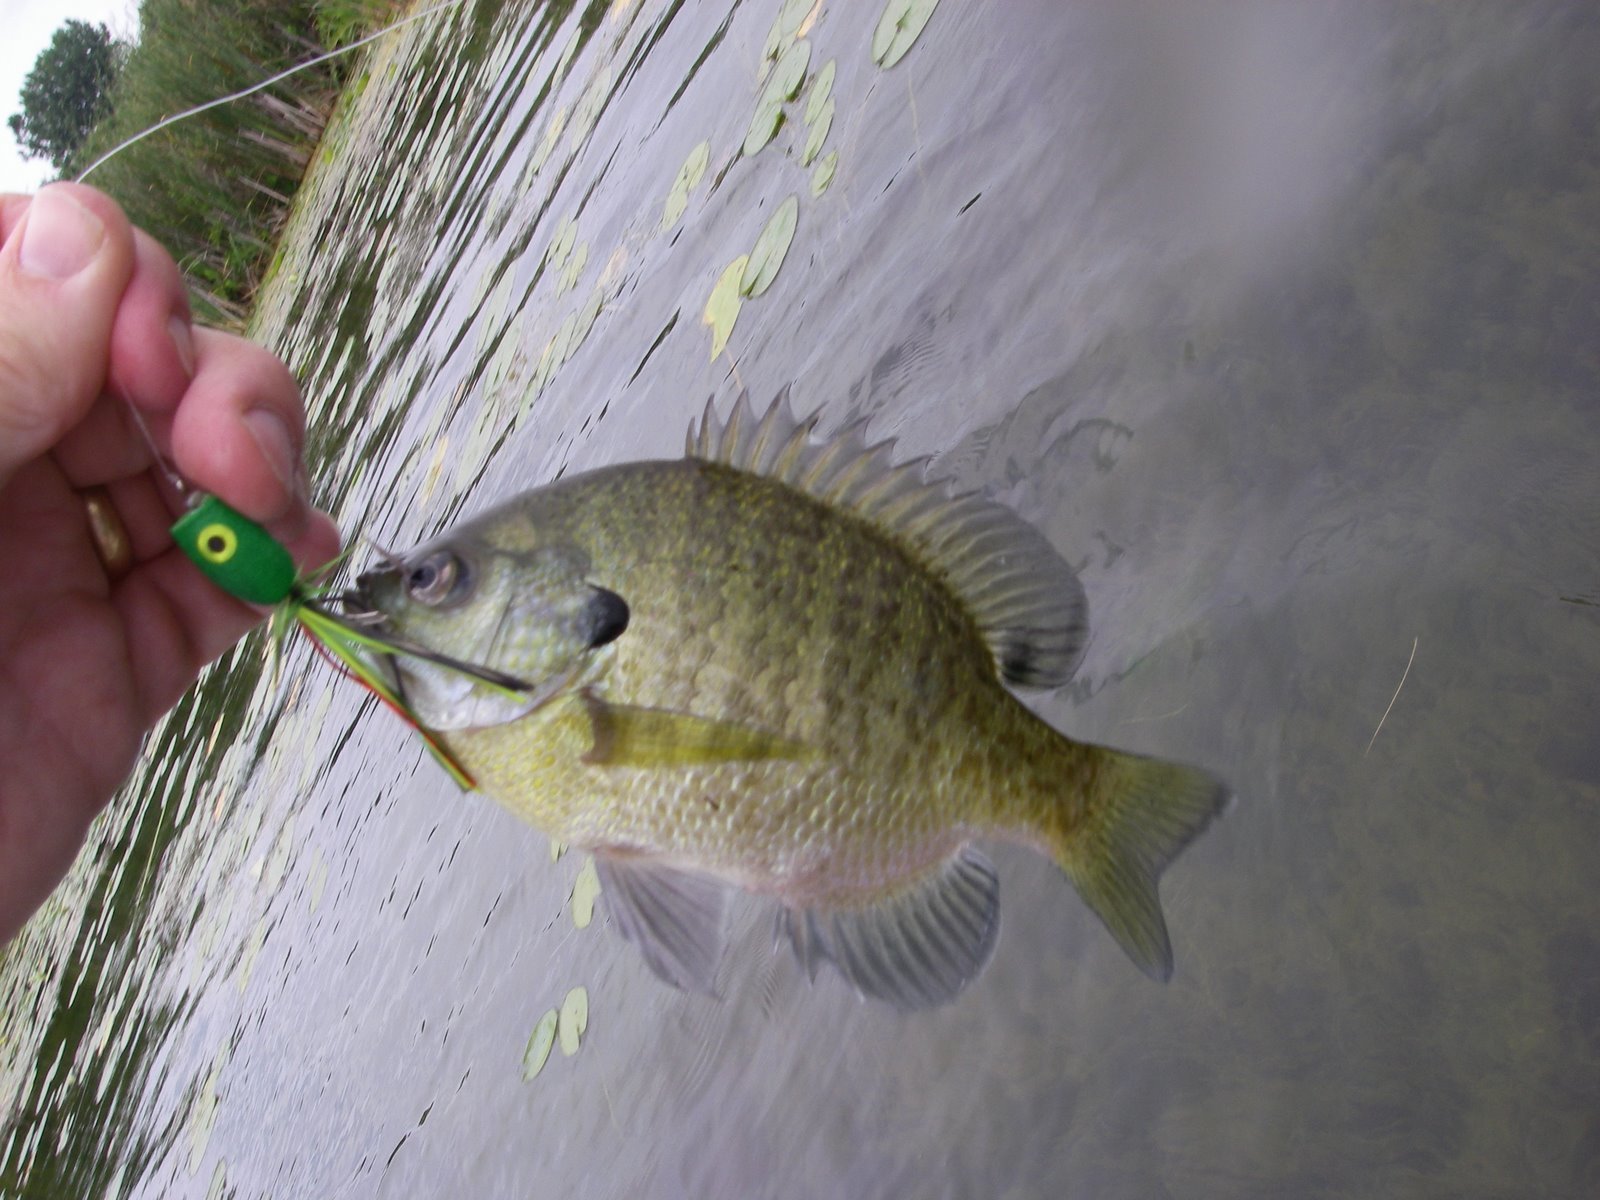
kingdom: Animalia
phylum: Chordata
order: Perciformes
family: Centrarchidae
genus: Lepomis
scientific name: Lepomis macrochirus
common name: Bluegill
